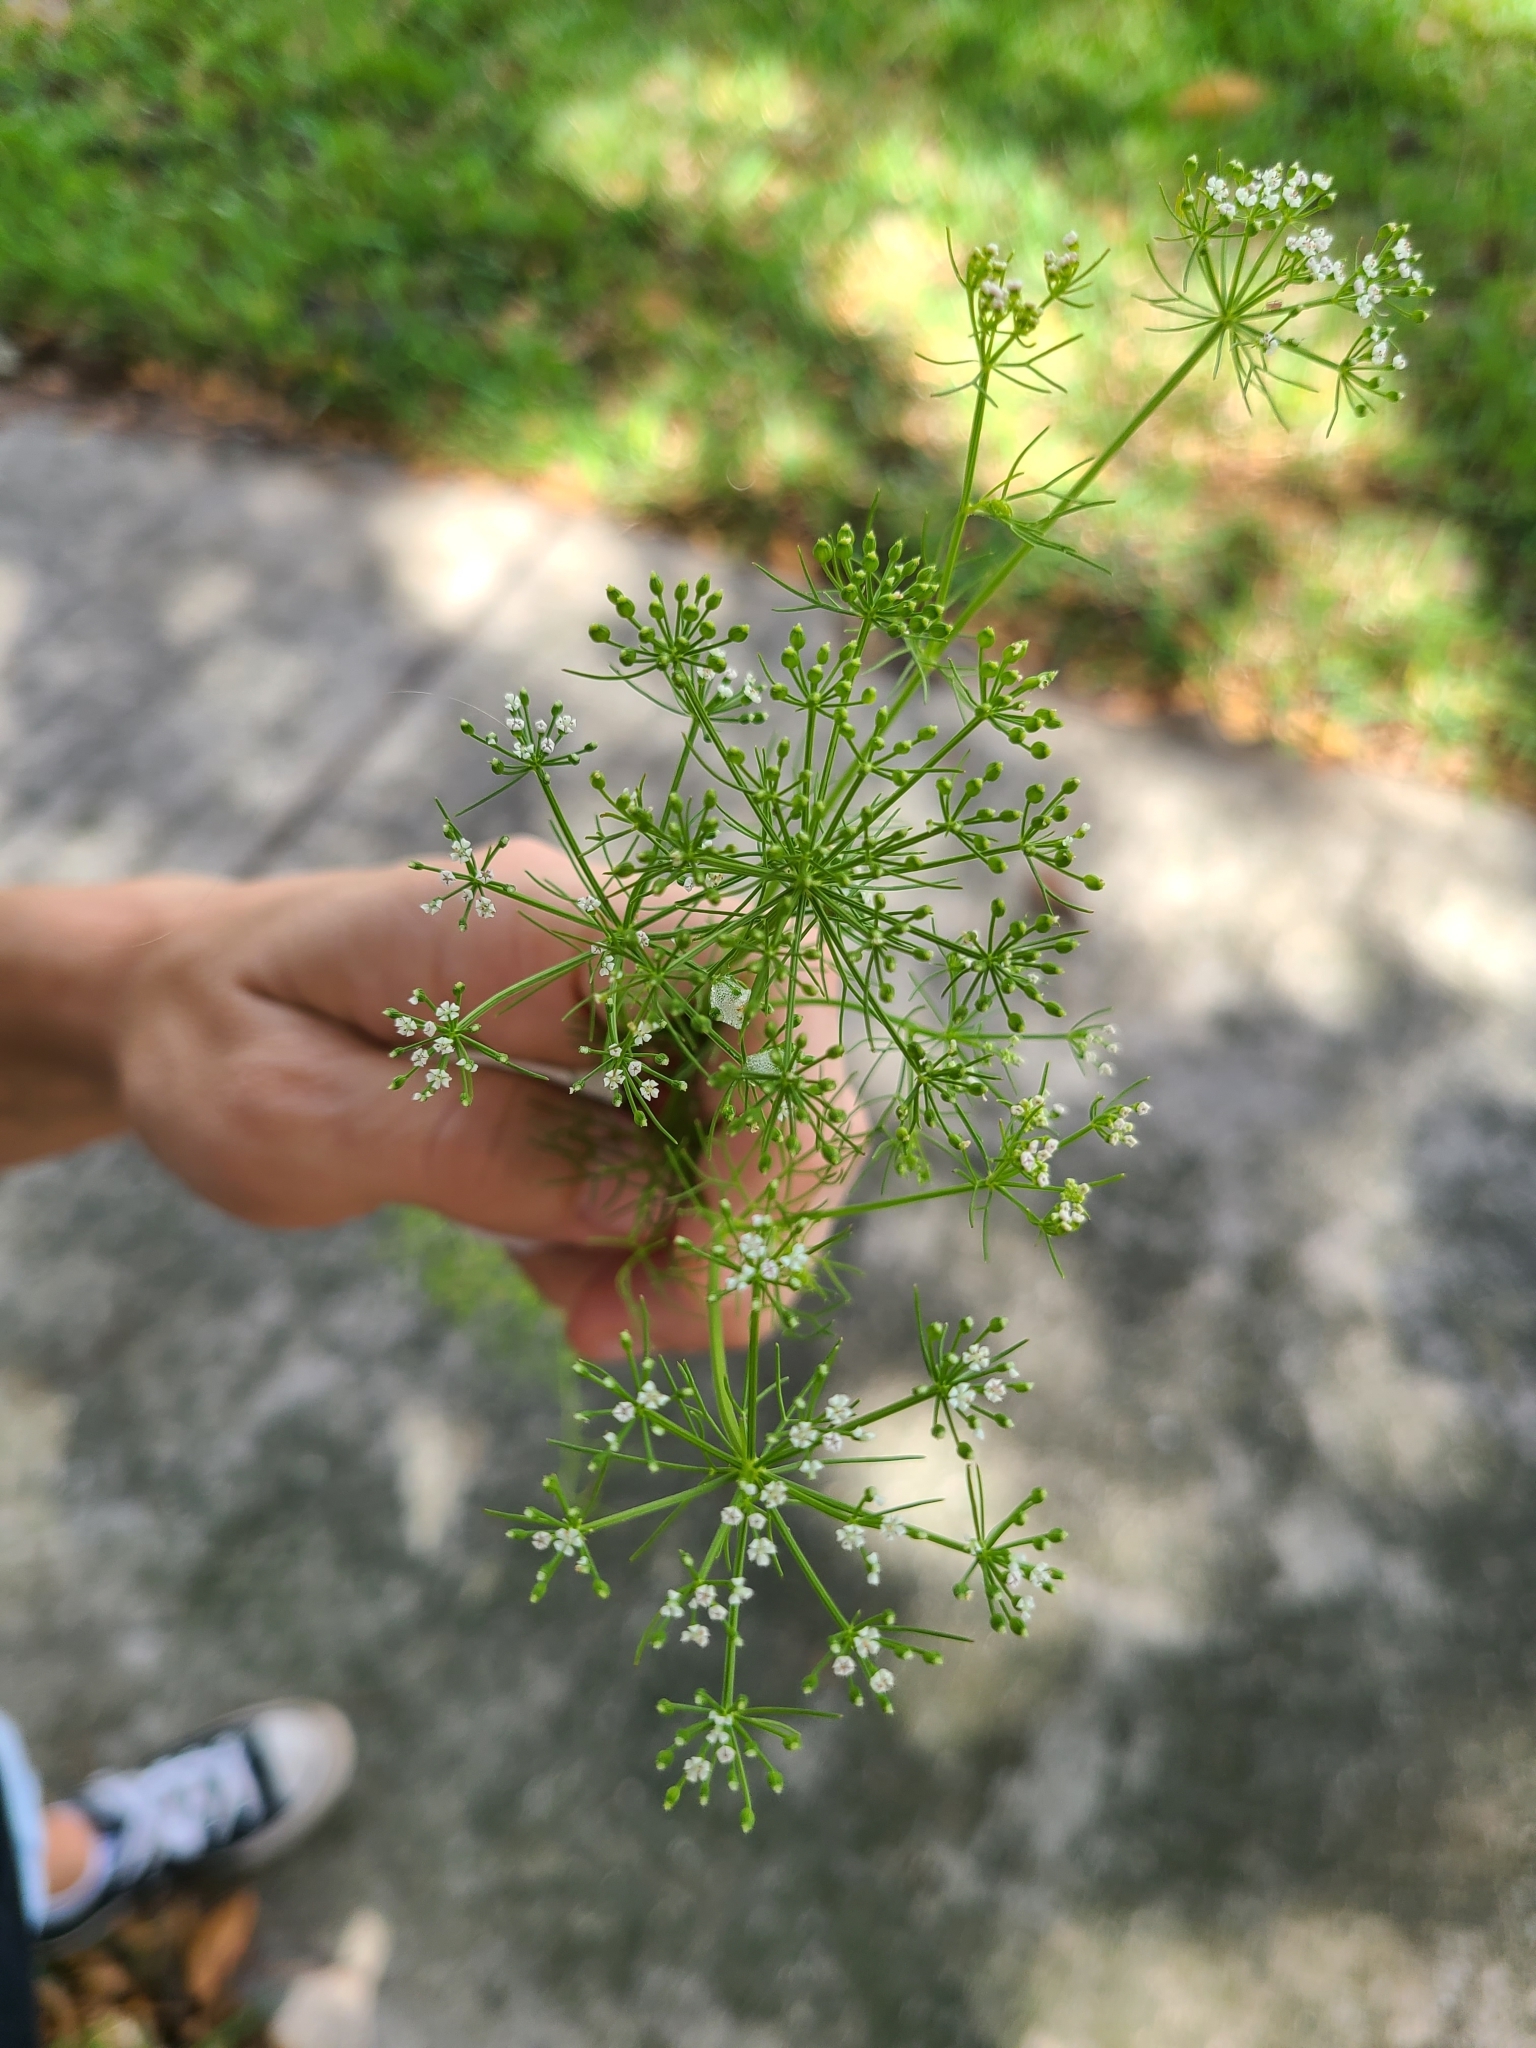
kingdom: Plantae
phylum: Tracheophyta
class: Magnoliopsida
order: Apiales
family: Apiaceae
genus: Ptilimnium
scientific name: Ptilimnium capillaceum
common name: Herbwilliam
